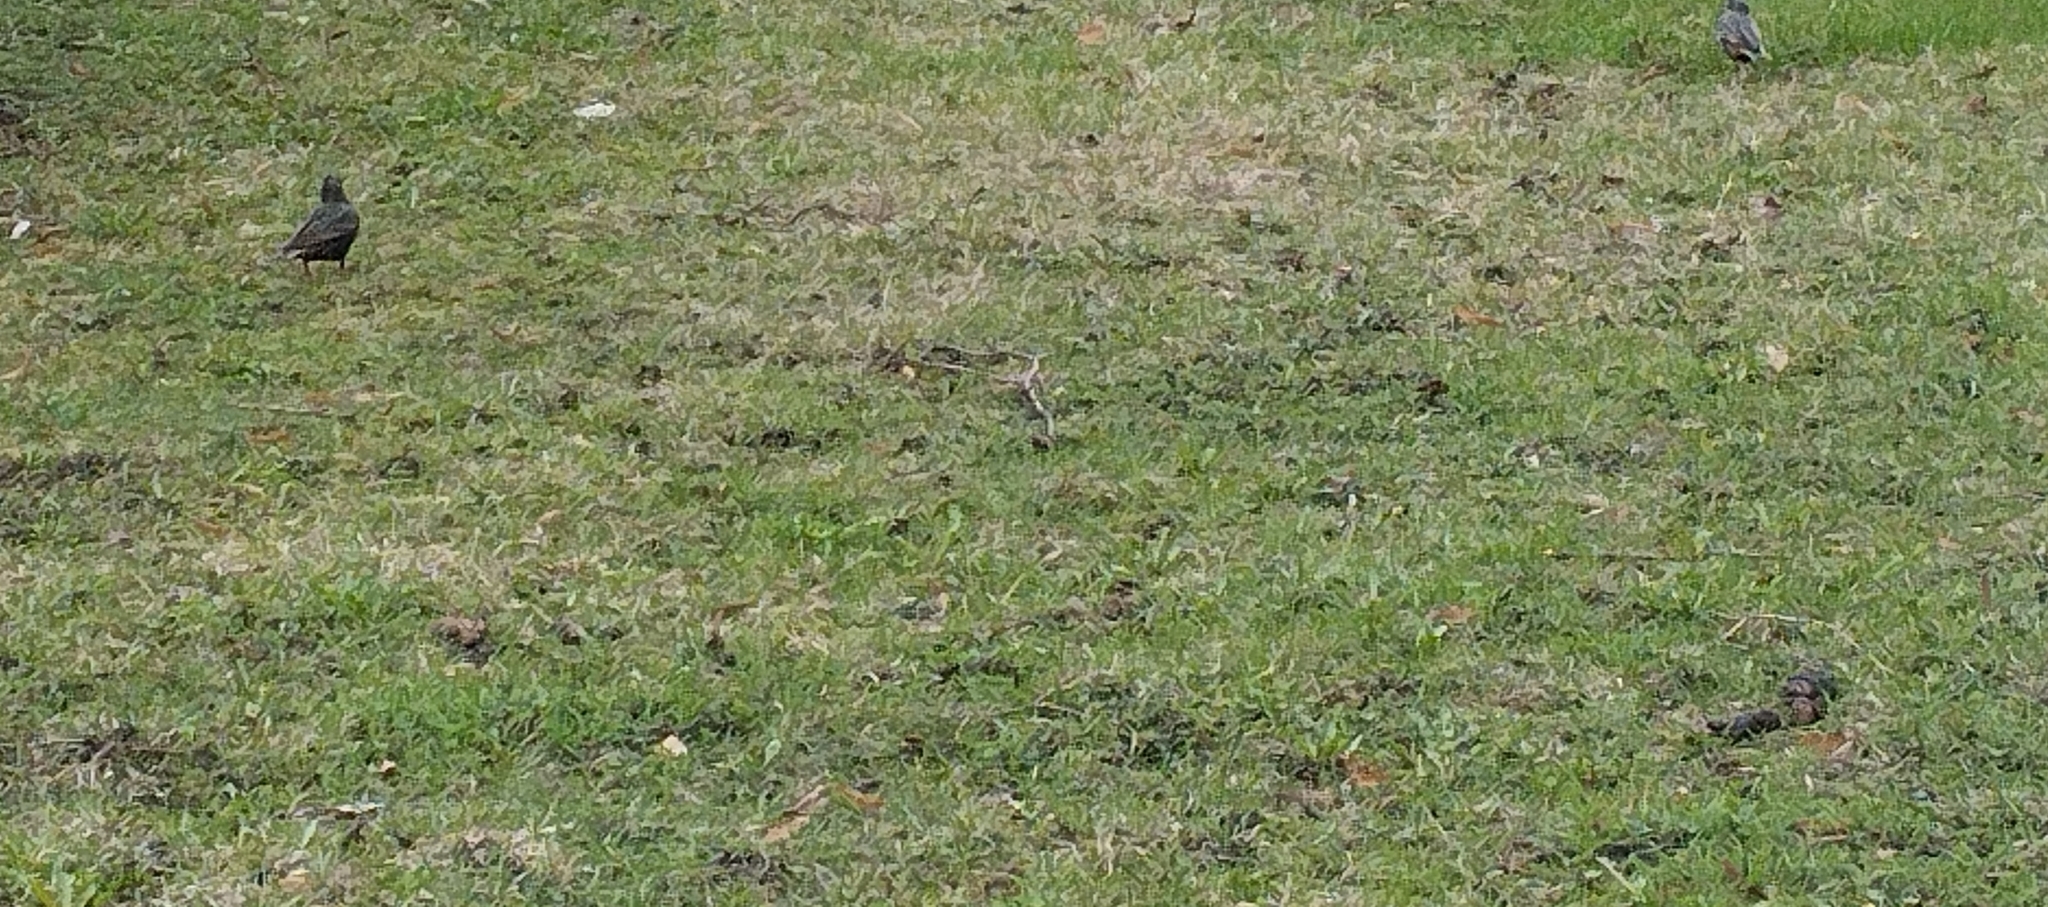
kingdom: Animalia
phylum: Chordata
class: Aves
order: Passeriformes
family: Sturnidae
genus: Sturnus
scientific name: Sturnus vulgaris
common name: Common starling
